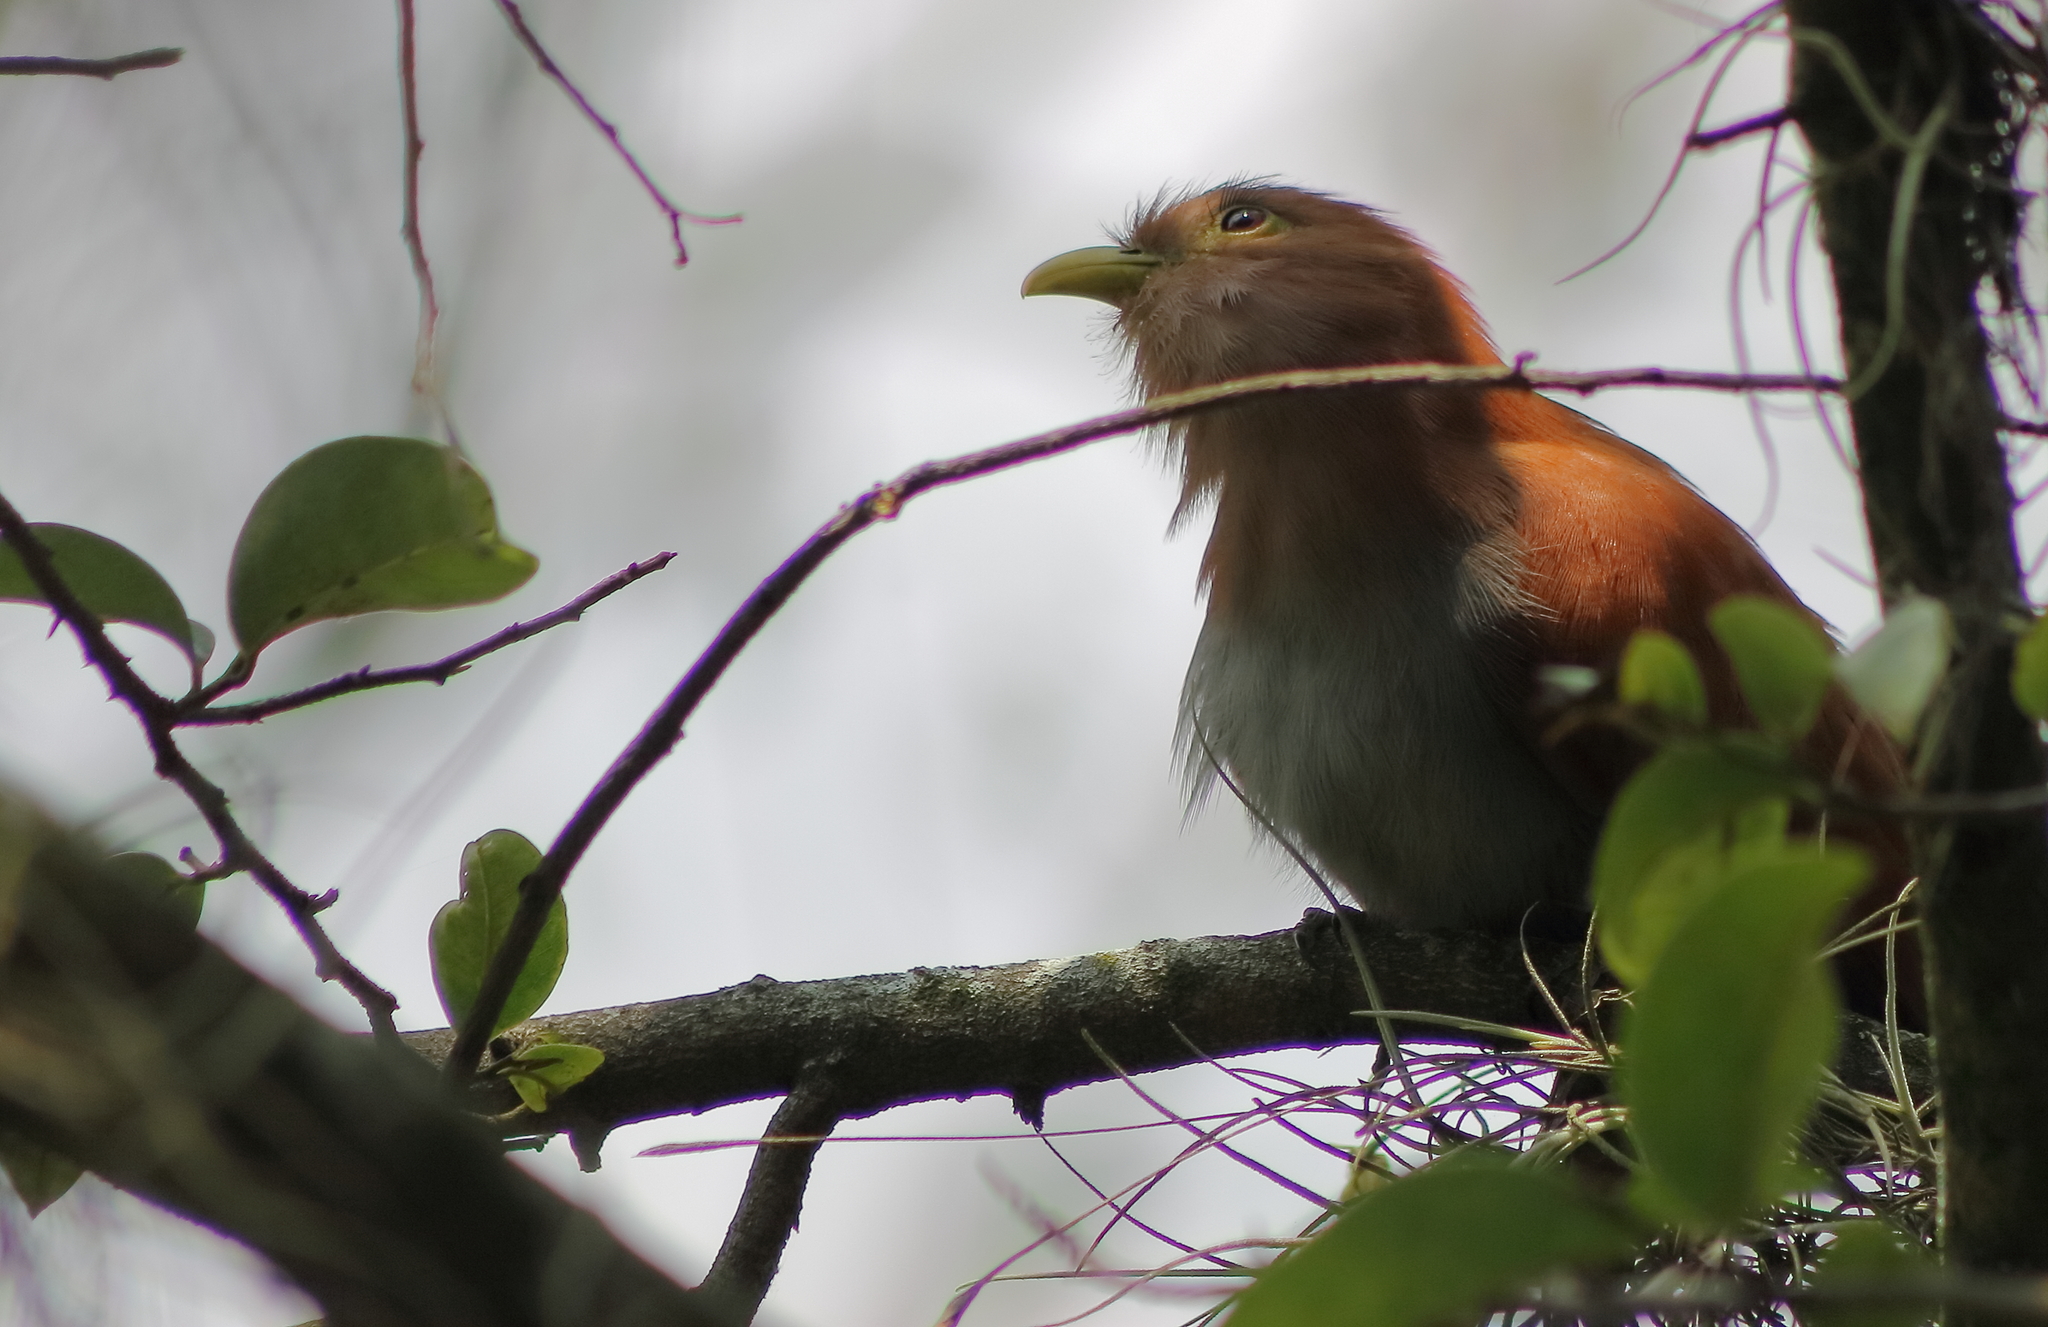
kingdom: Animalia
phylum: Chordata
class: Aves
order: Cuculiformes
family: Cuculidae
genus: Piaya
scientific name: Piaya cayana
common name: Squirrel cuckoo
